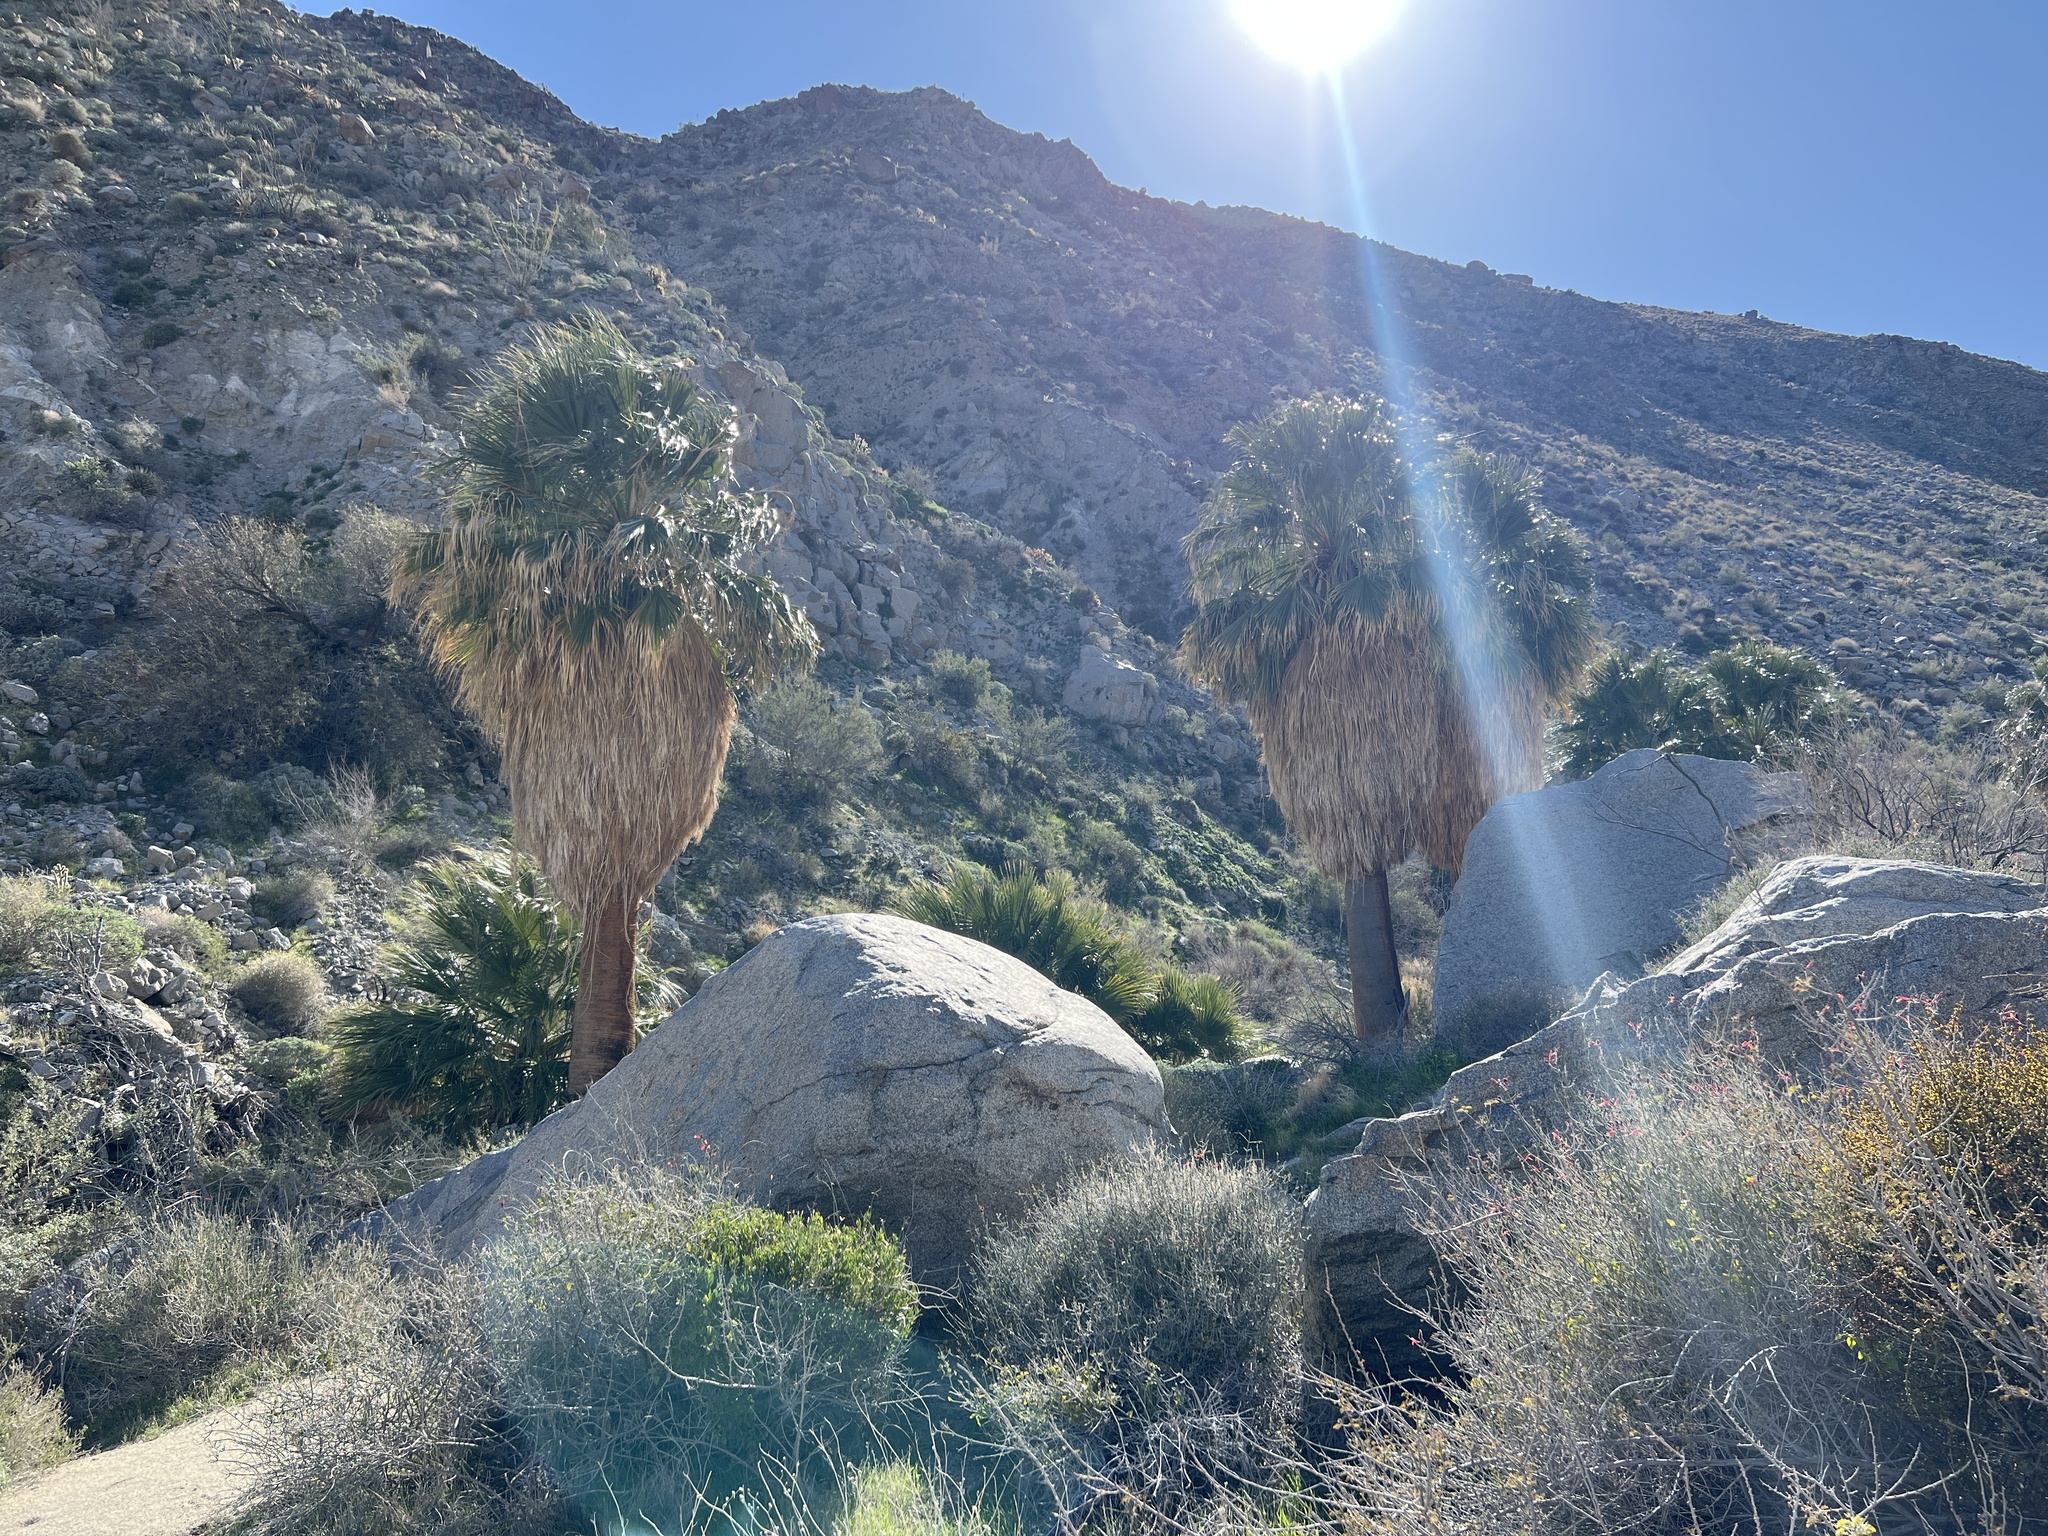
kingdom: Plantae
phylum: Tracheophyta
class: Liliopsida
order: Arecales
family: Arecaceae
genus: Washingtonia
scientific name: Washingtonia filifera
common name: California fan palm
